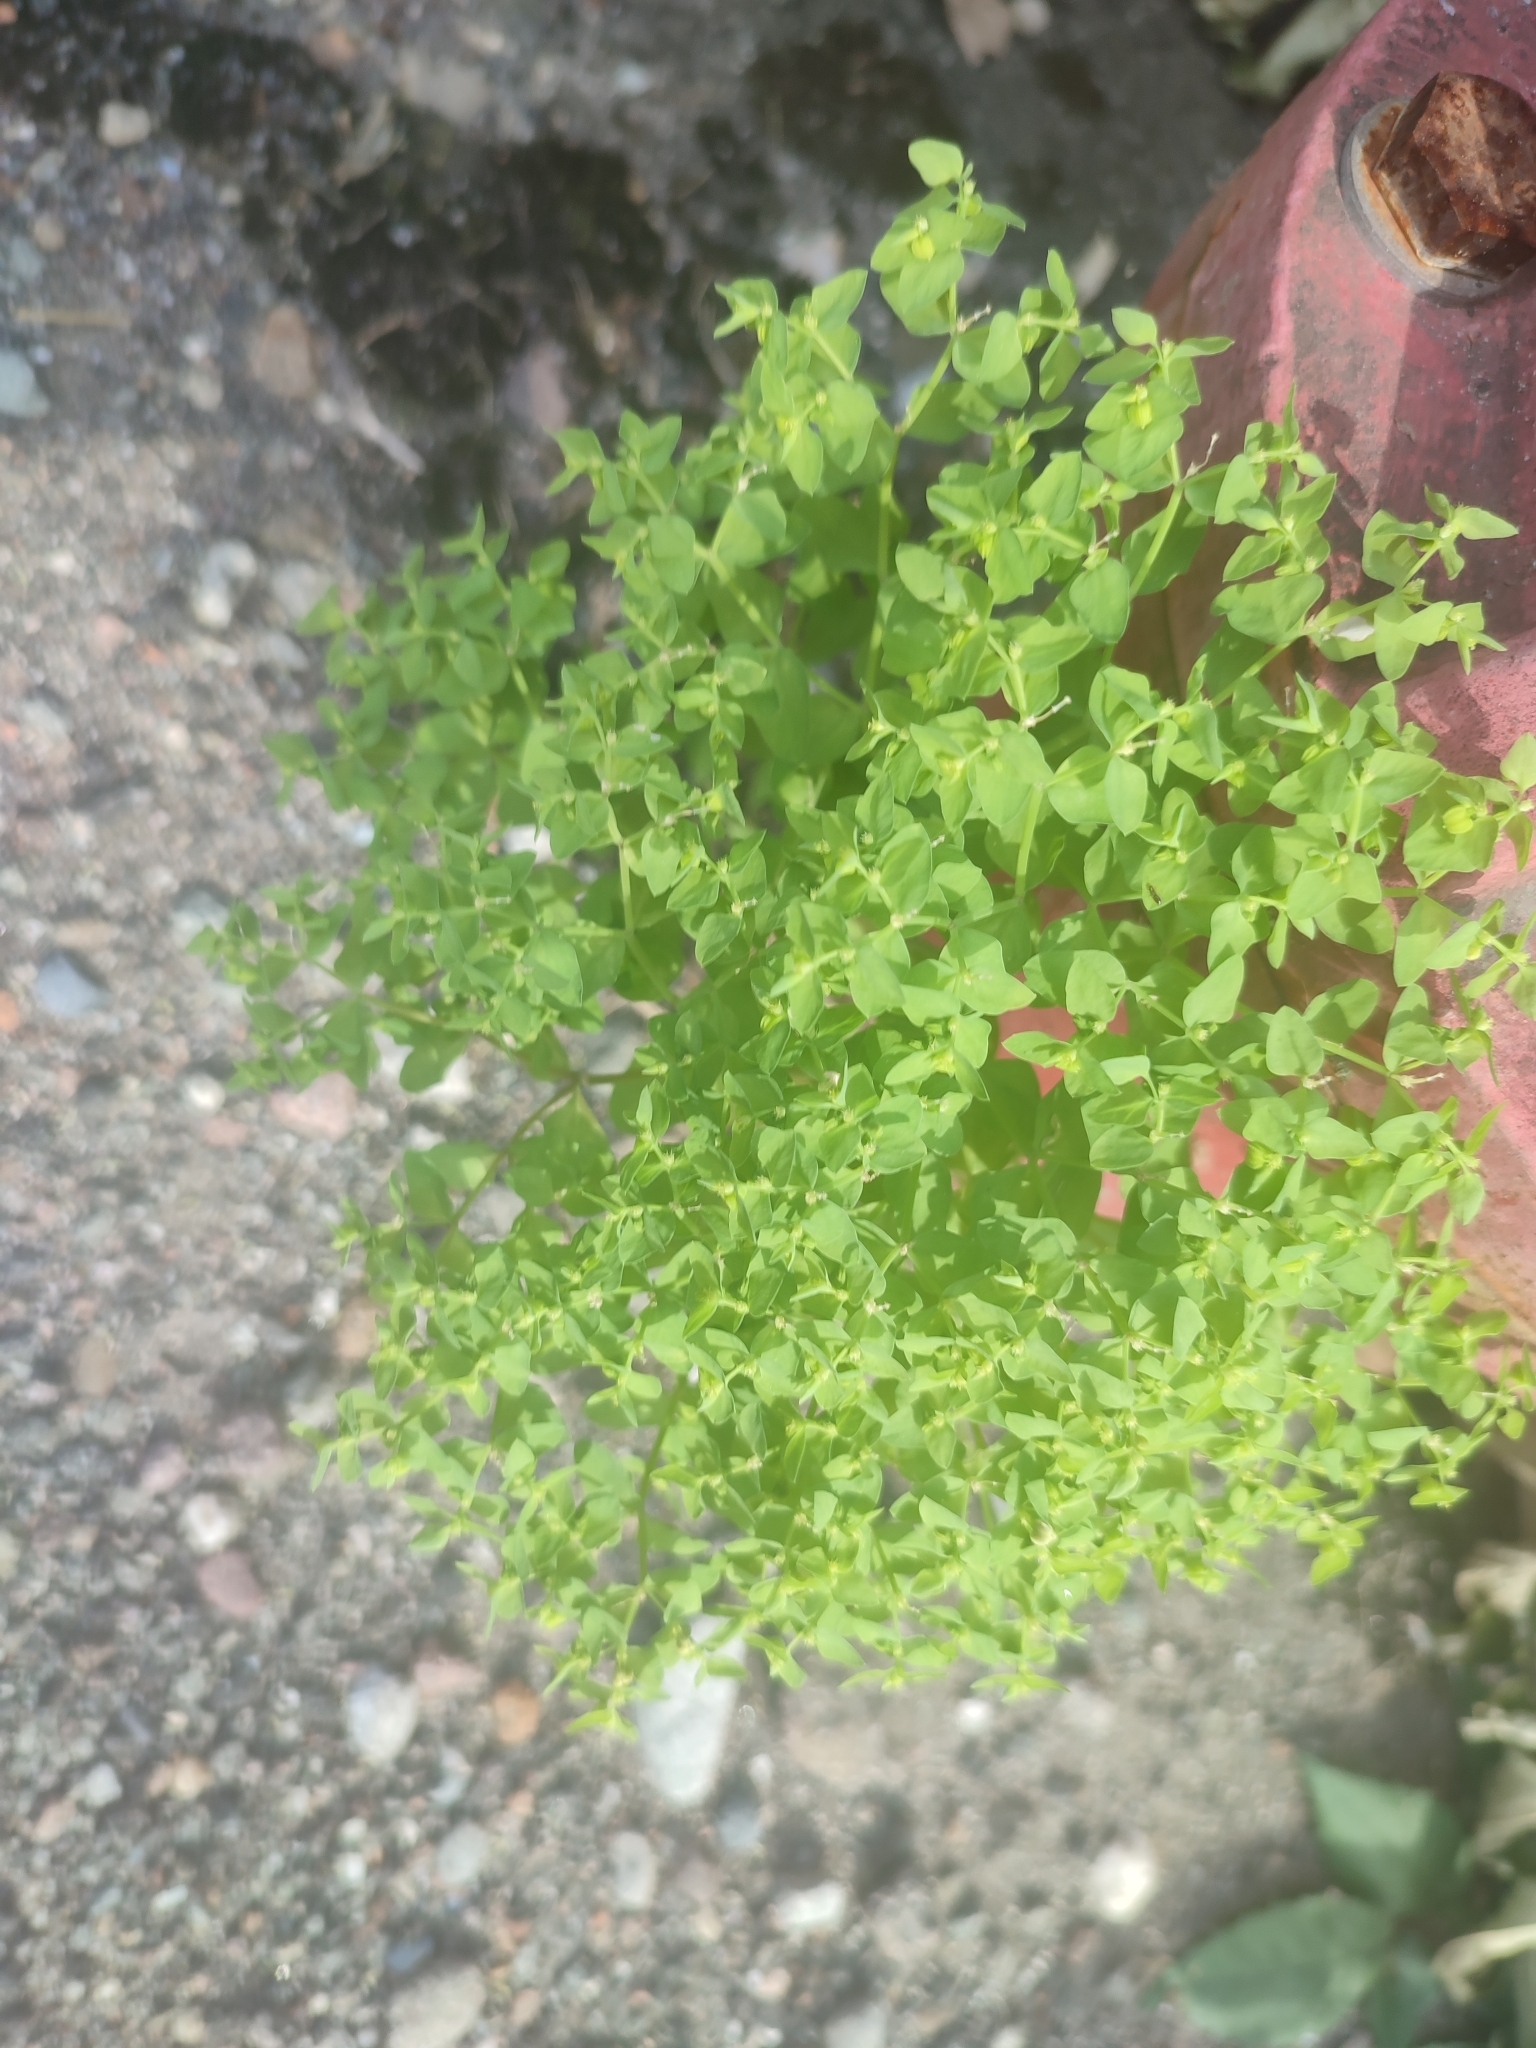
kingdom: Plantae
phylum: Tracheophyta
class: Magnoliopsida
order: Malpighiales
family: Euphorbiaceae
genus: Euphorbia
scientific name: Euphorbia peplus
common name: Petty spurge
